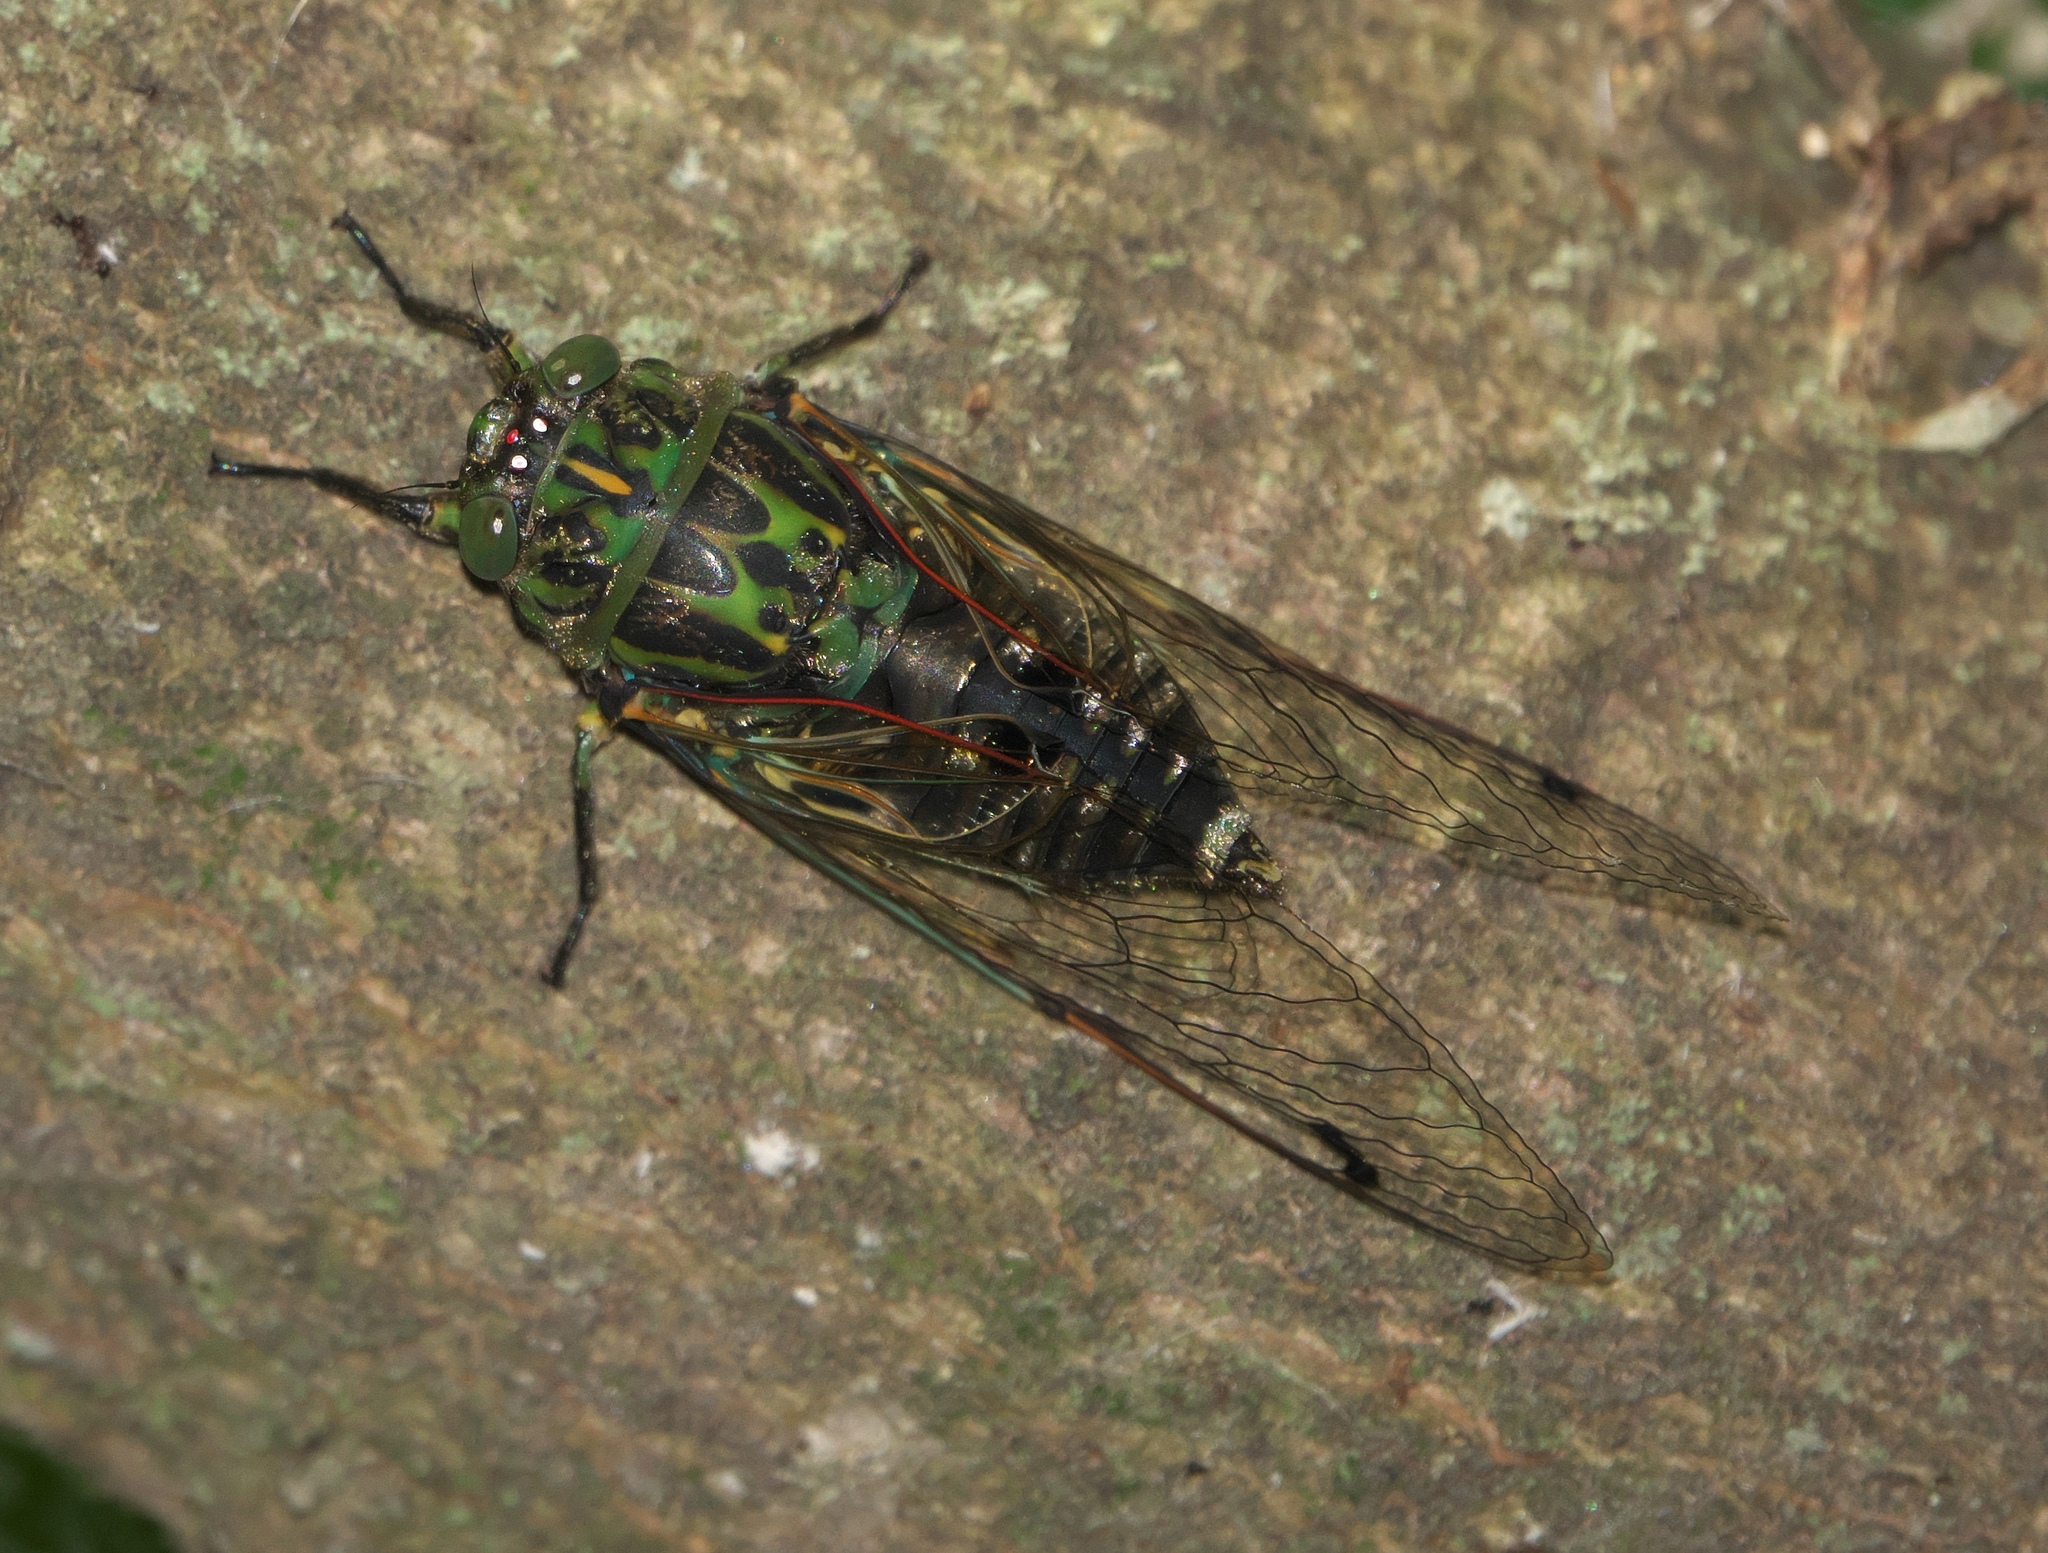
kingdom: Animalia
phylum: Arthropoda
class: Insecta
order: Hemiptera
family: Cicadidae
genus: Amphipsalta
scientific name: Amphipsalta zelandica
